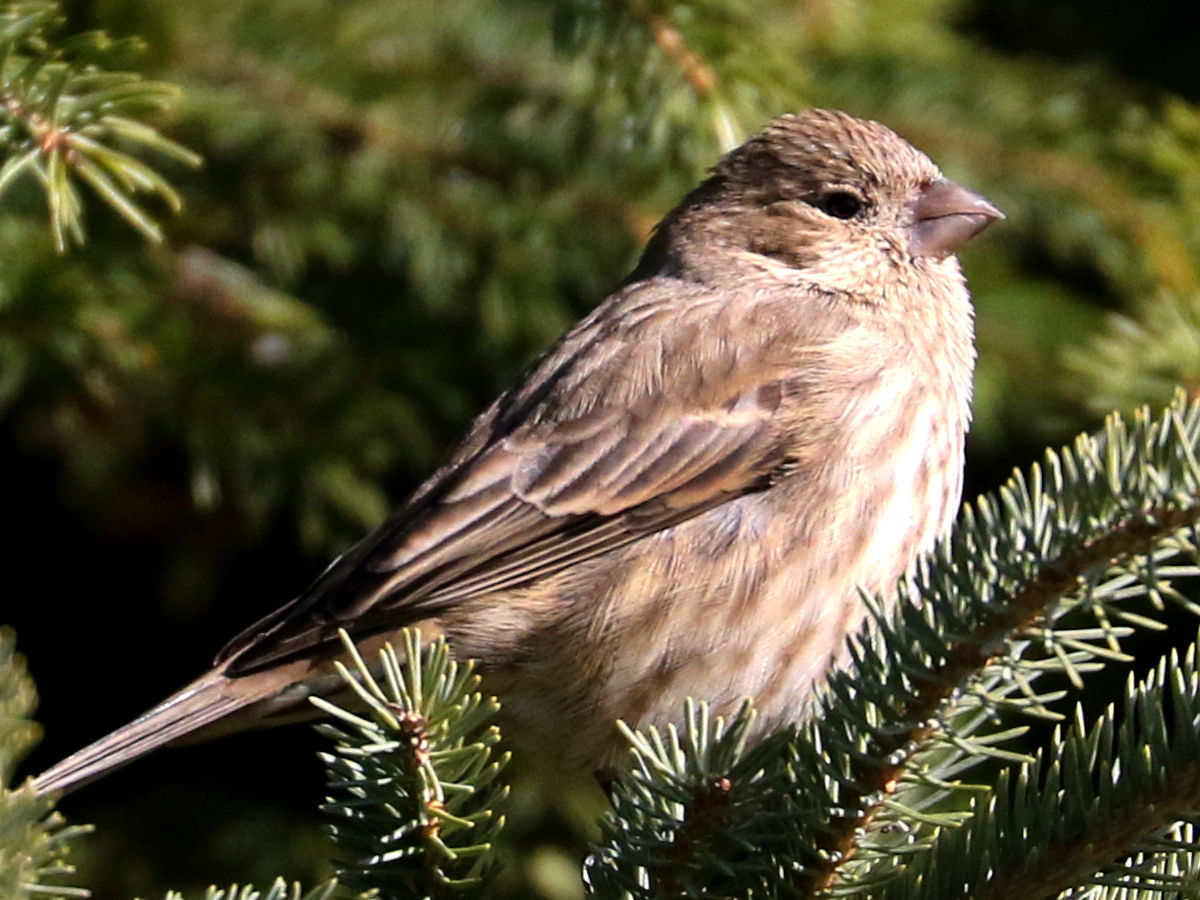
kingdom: Animalia
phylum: Chordata
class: Aves
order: Passeriformes
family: Fringillidae
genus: Haemorhous
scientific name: Haemorhous mexicanus
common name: House finch
